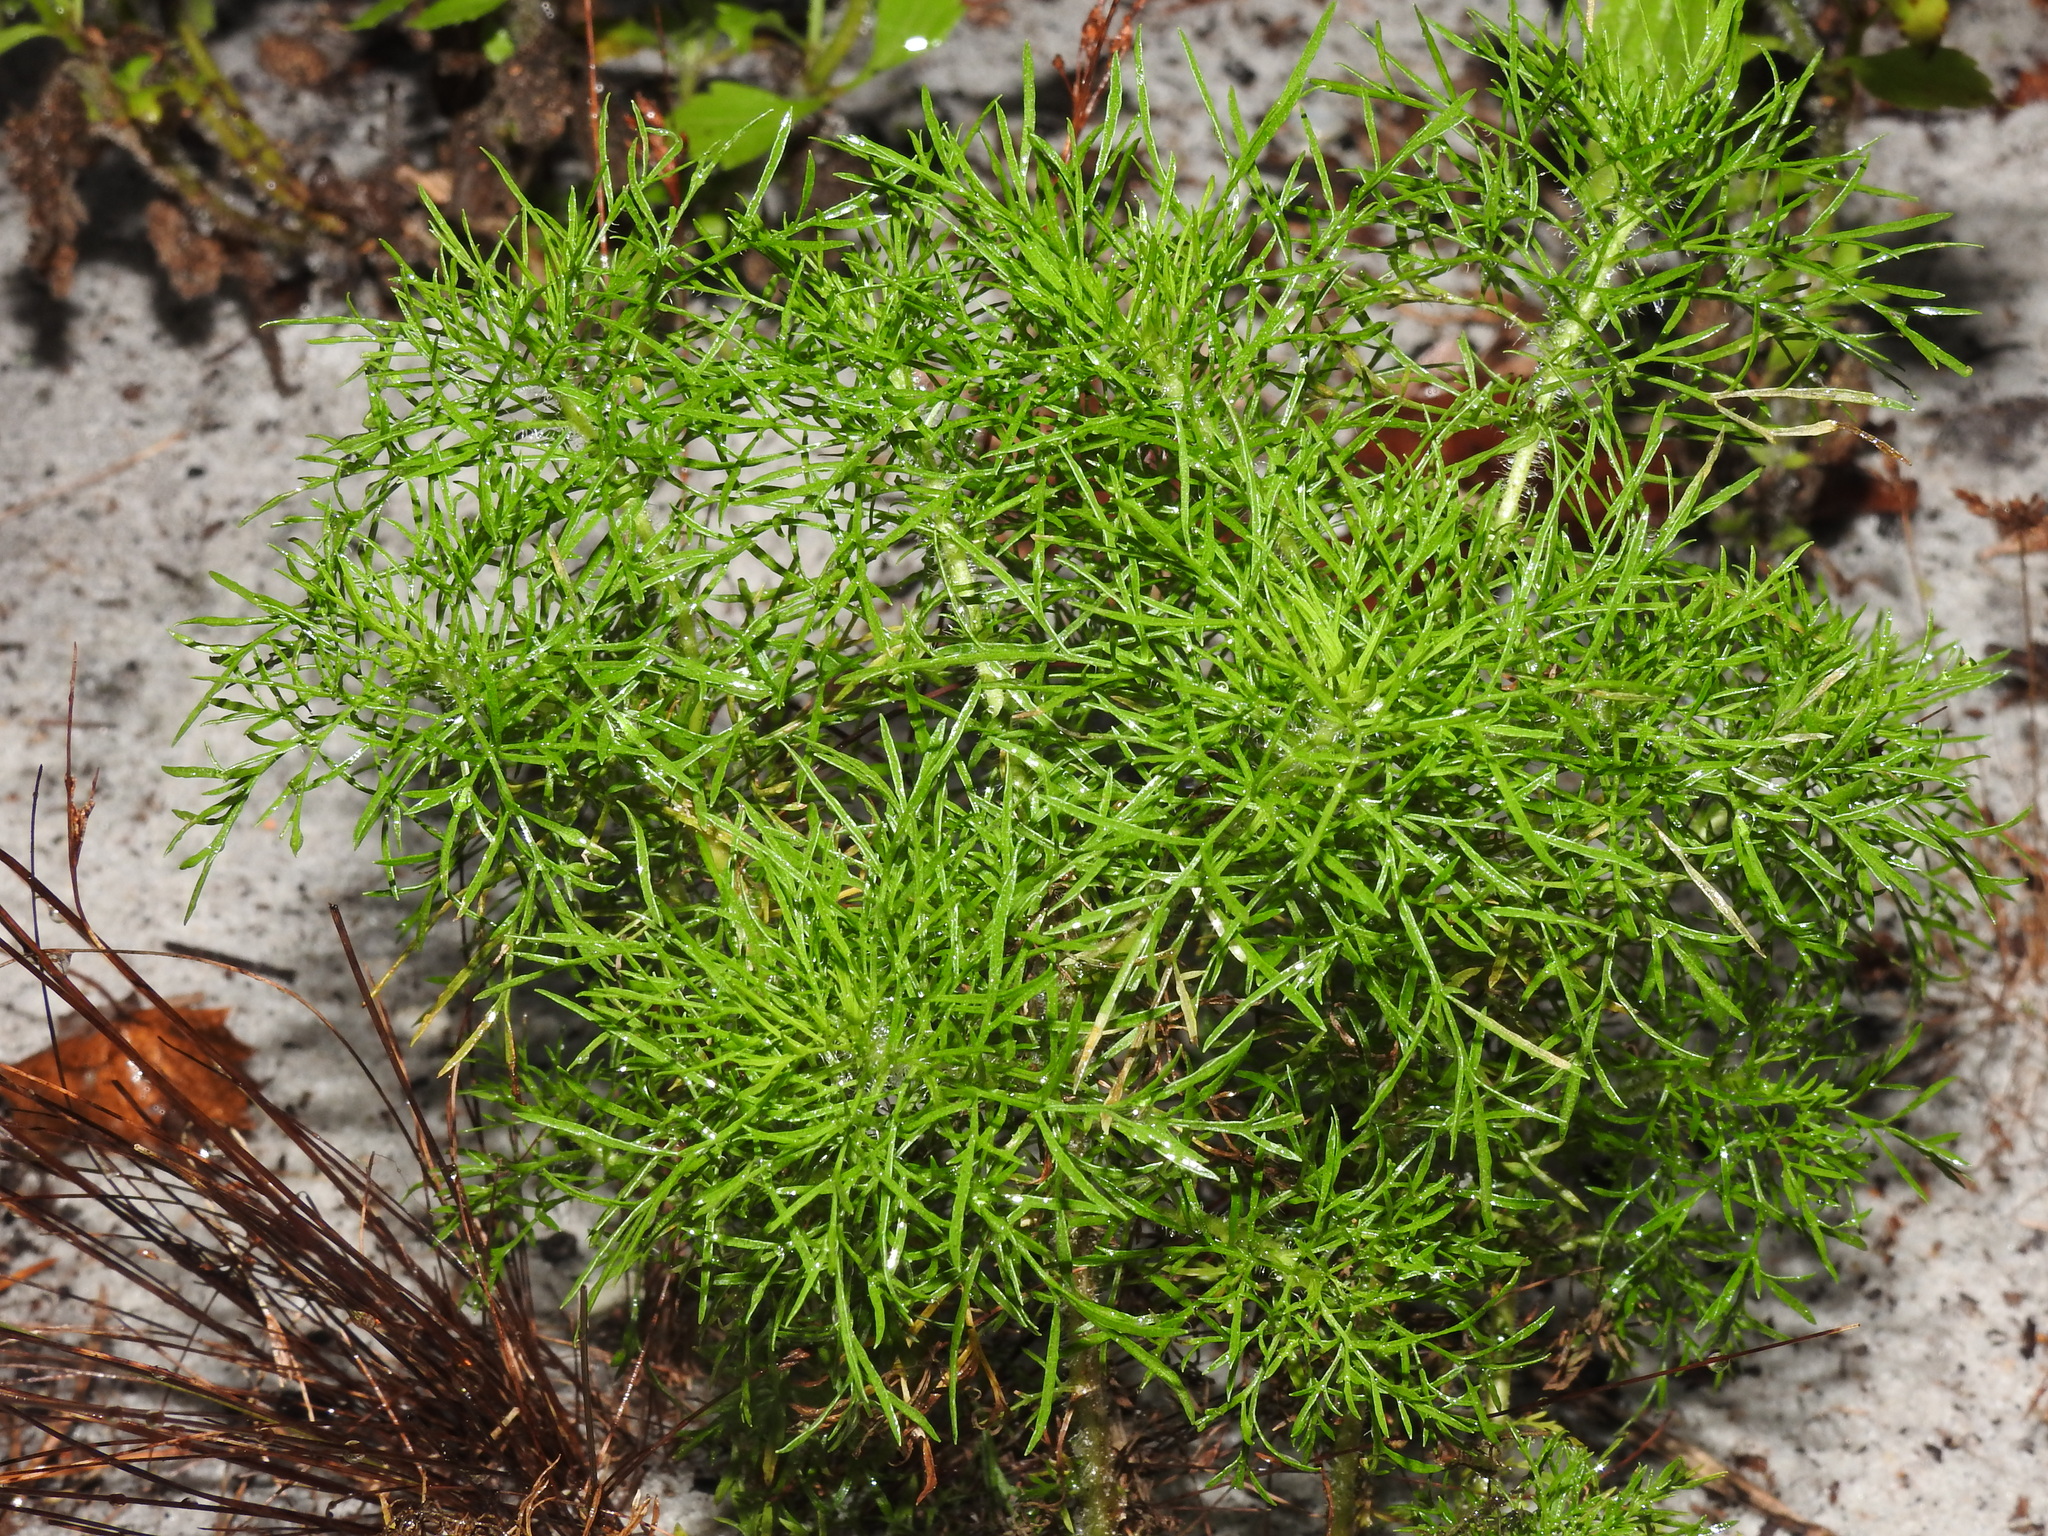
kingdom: Plantae
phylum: Tracheophyta
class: Magnoliopsida
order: Asterales
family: Asteraceae
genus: Eupatorium
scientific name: Eupatorium compositifolium
